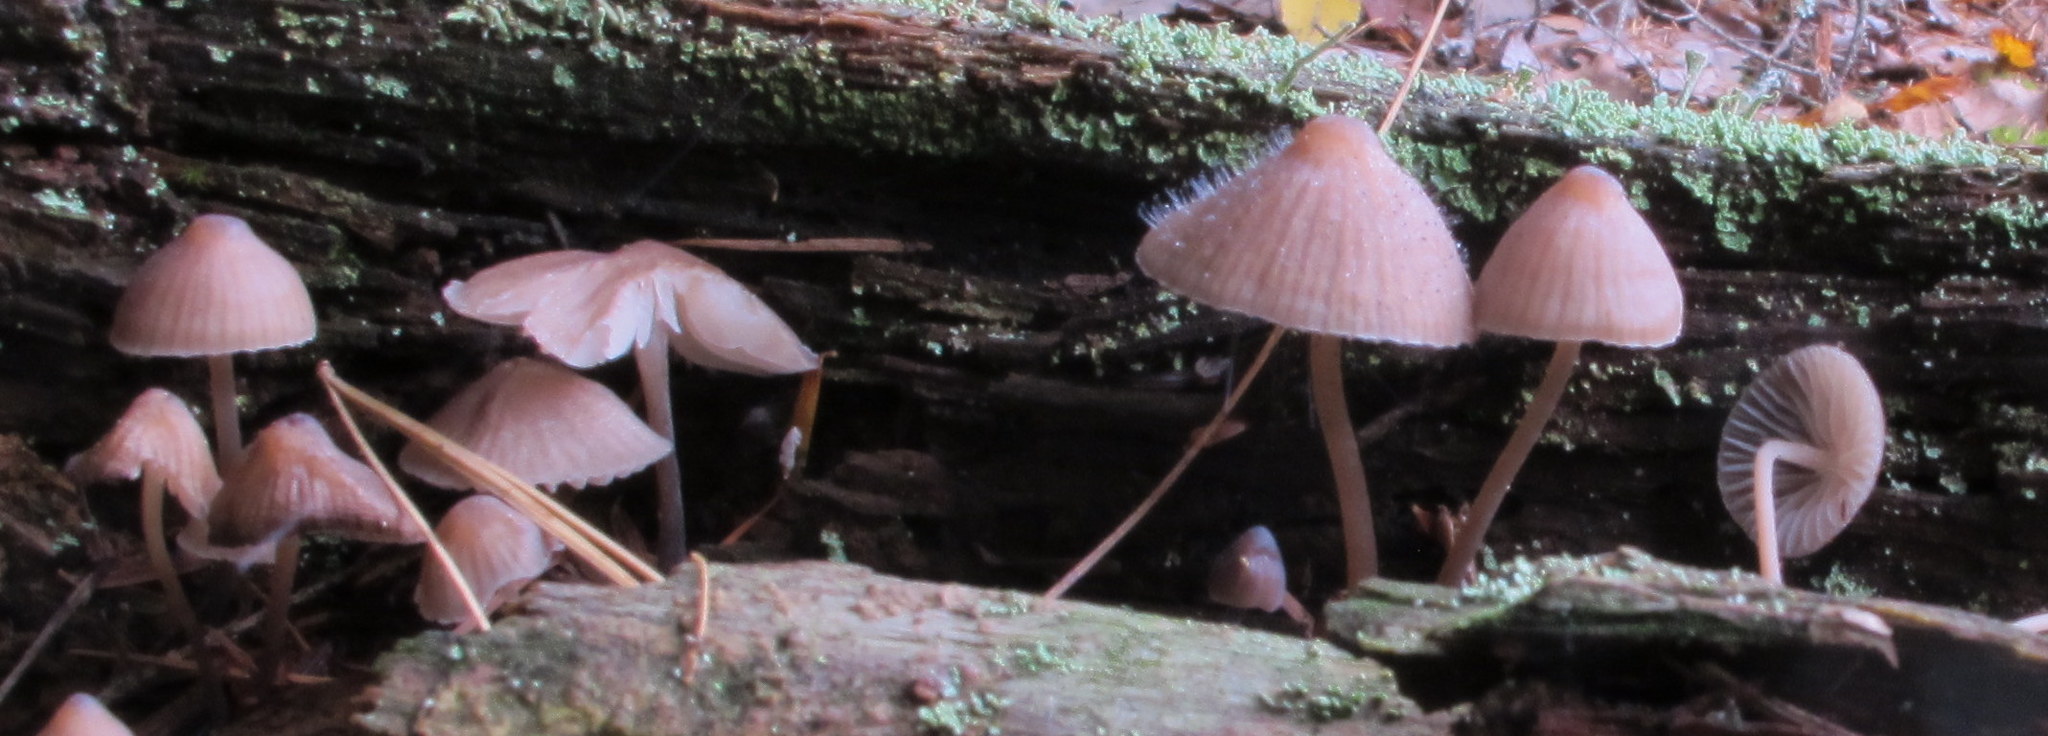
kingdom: Fungi
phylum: Basidiomycota
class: Agaricomycetes
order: Agaricales
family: Mycenaceae
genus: Mycena
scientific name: Mycena haematopus
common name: Burgundydrop bonnet
